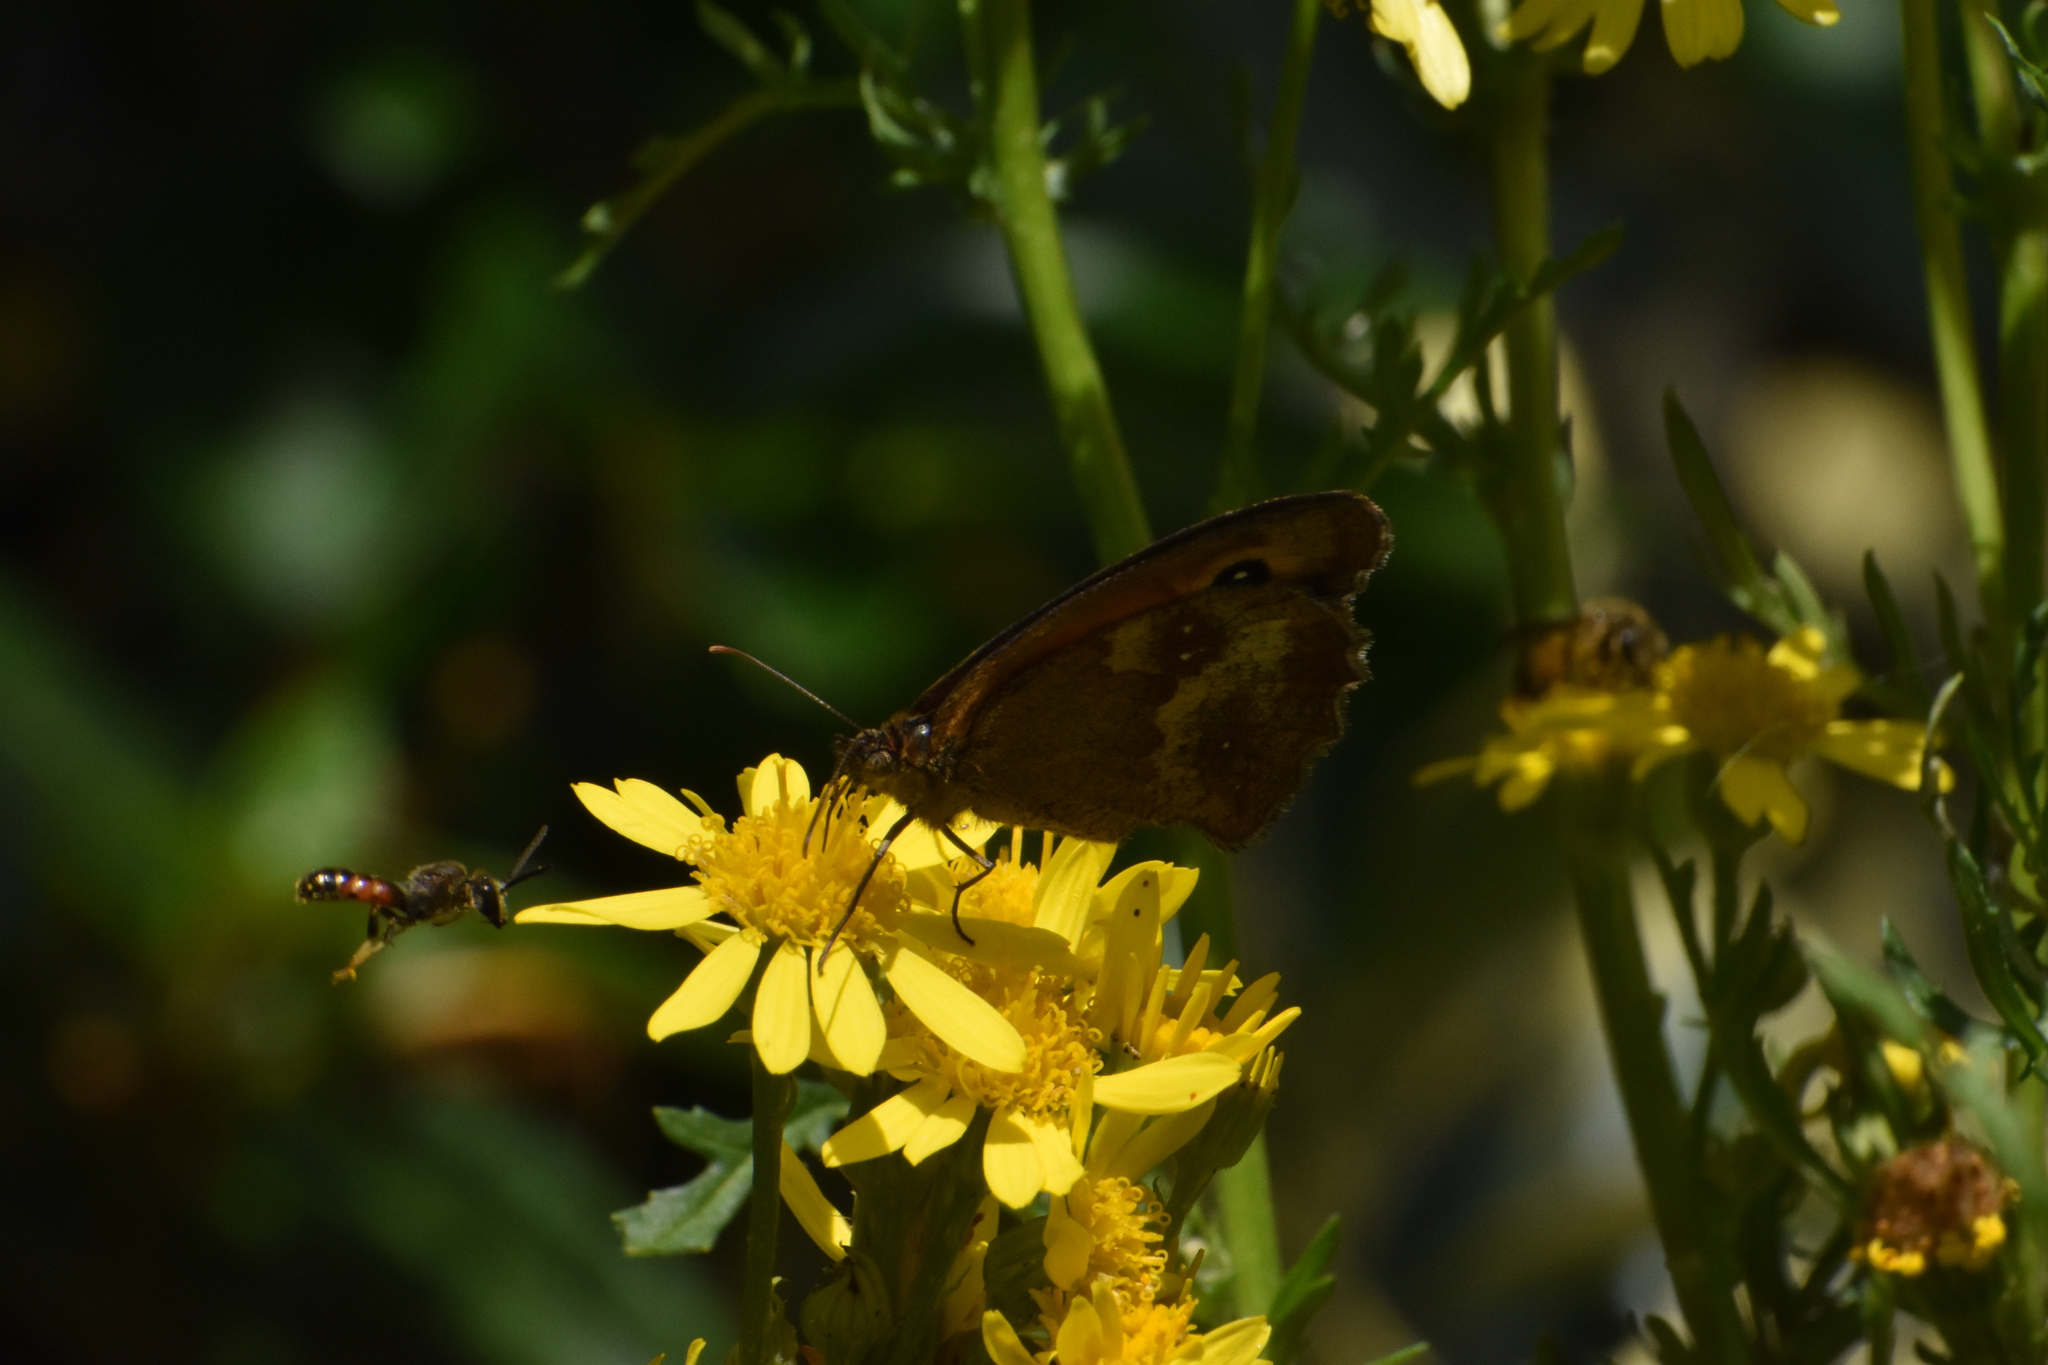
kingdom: Animalia
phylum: Arthropoda
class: Insecta
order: Lepidoptera
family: Nymphalidae
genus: Pyronia
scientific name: Pyronia tithonus
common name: Gatekeeper
